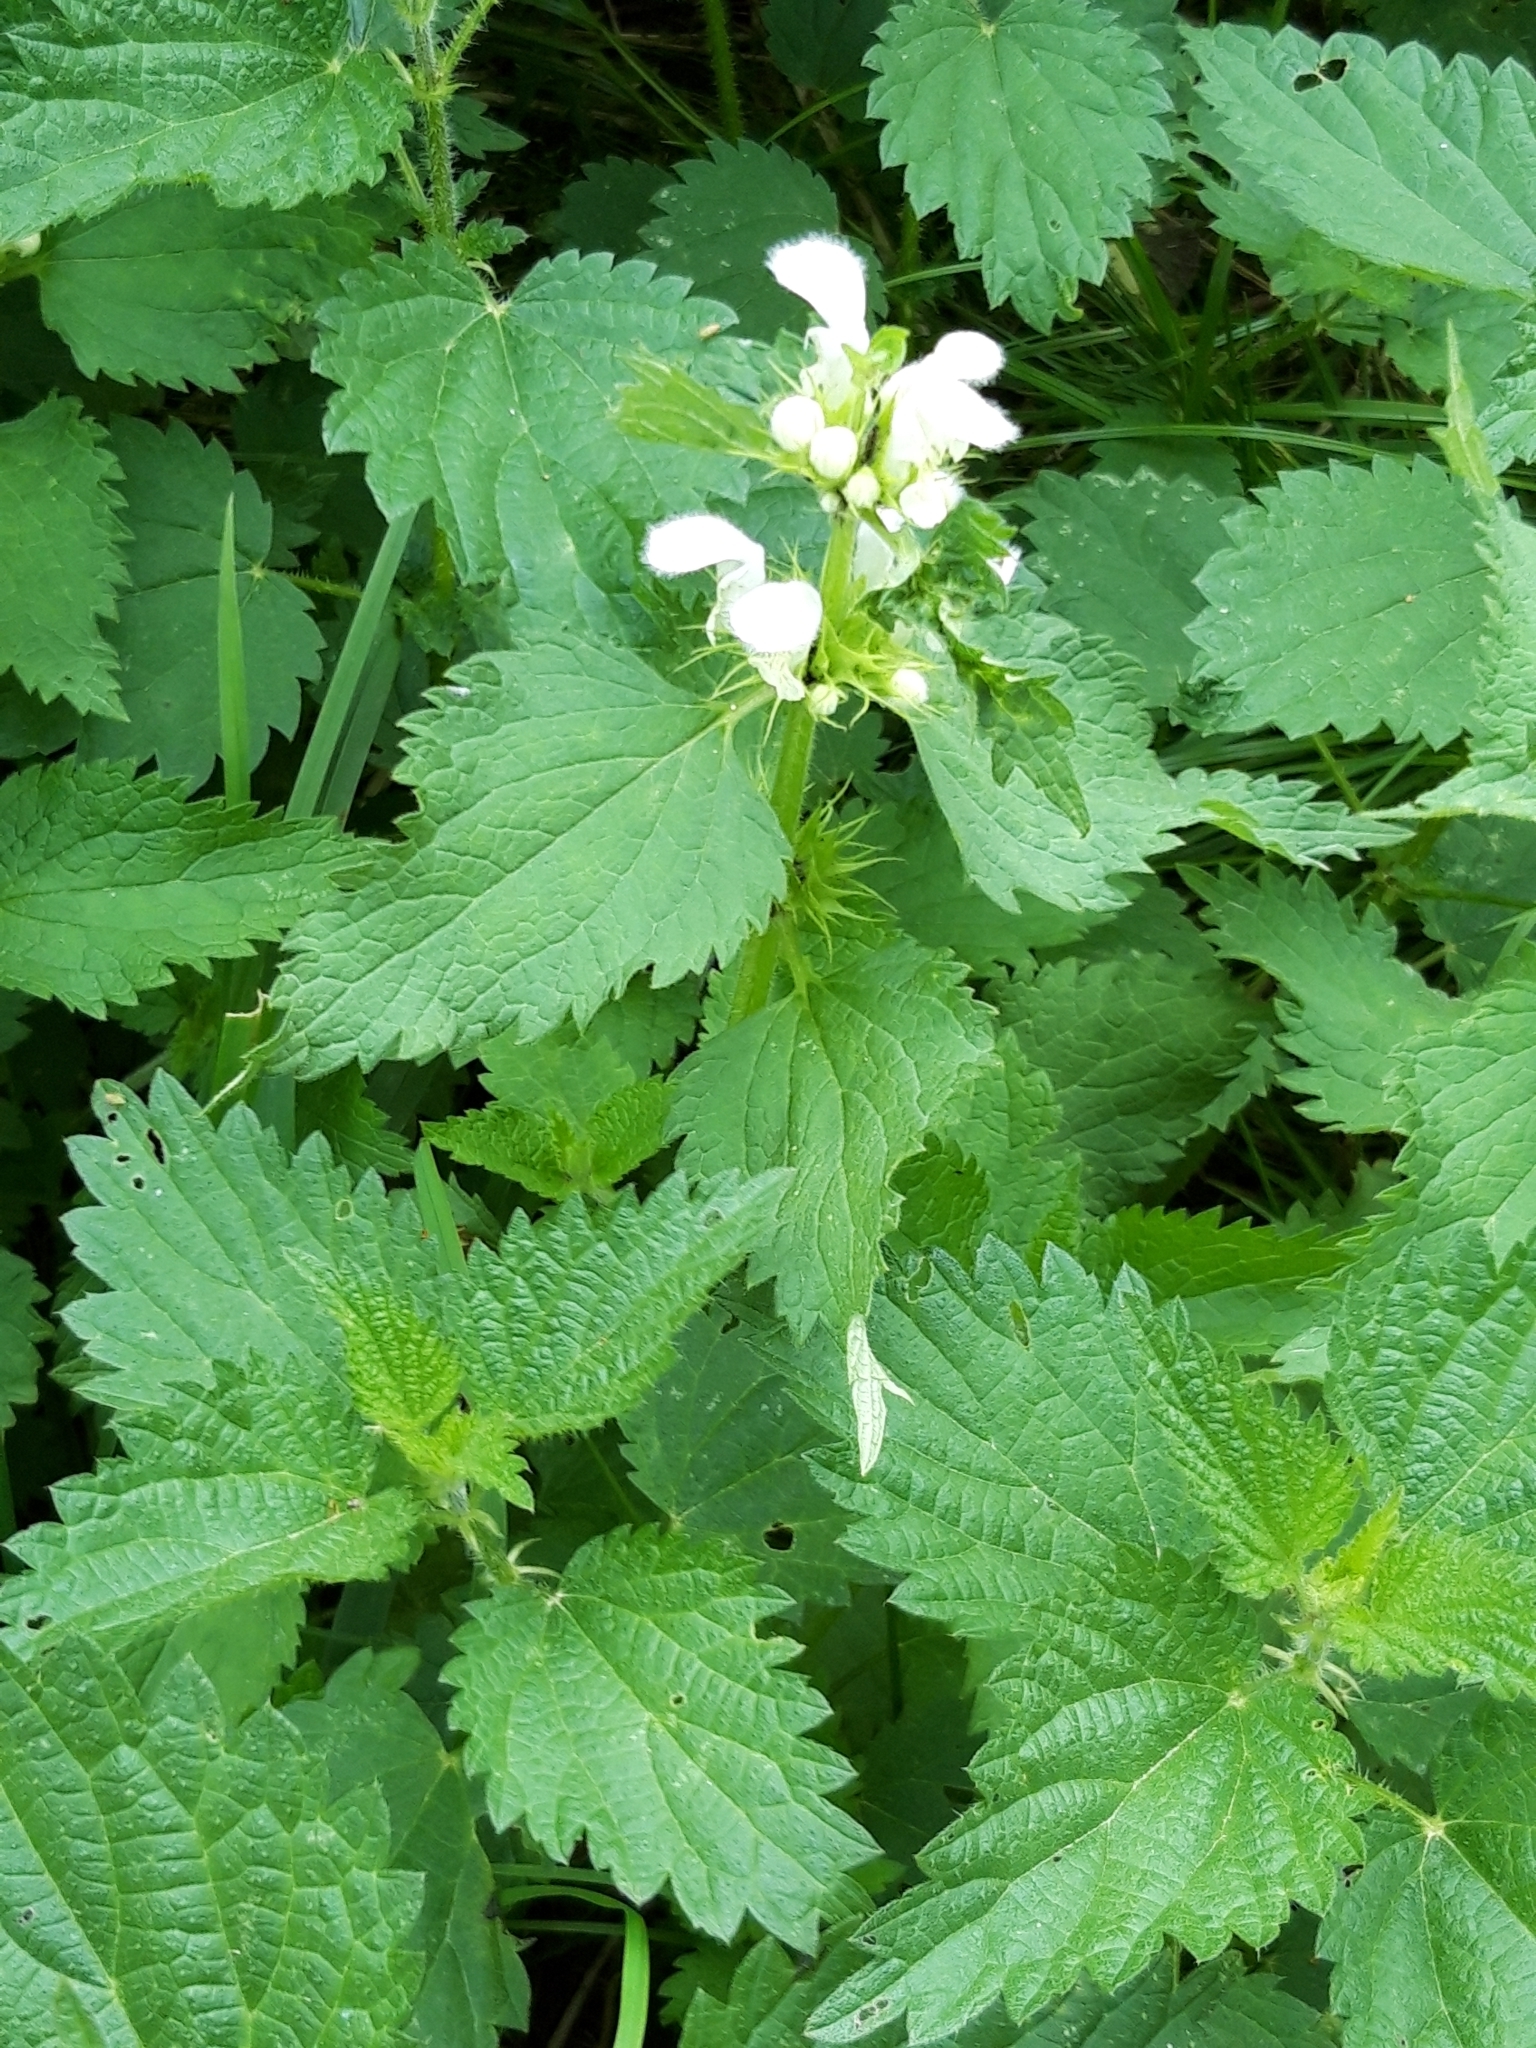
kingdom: Plantae
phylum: Tracheophyta
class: Magnoliopsida
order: Lamiales
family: Lamiaceae
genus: Lamium
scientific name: Lamium album
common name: White dead-nettle
